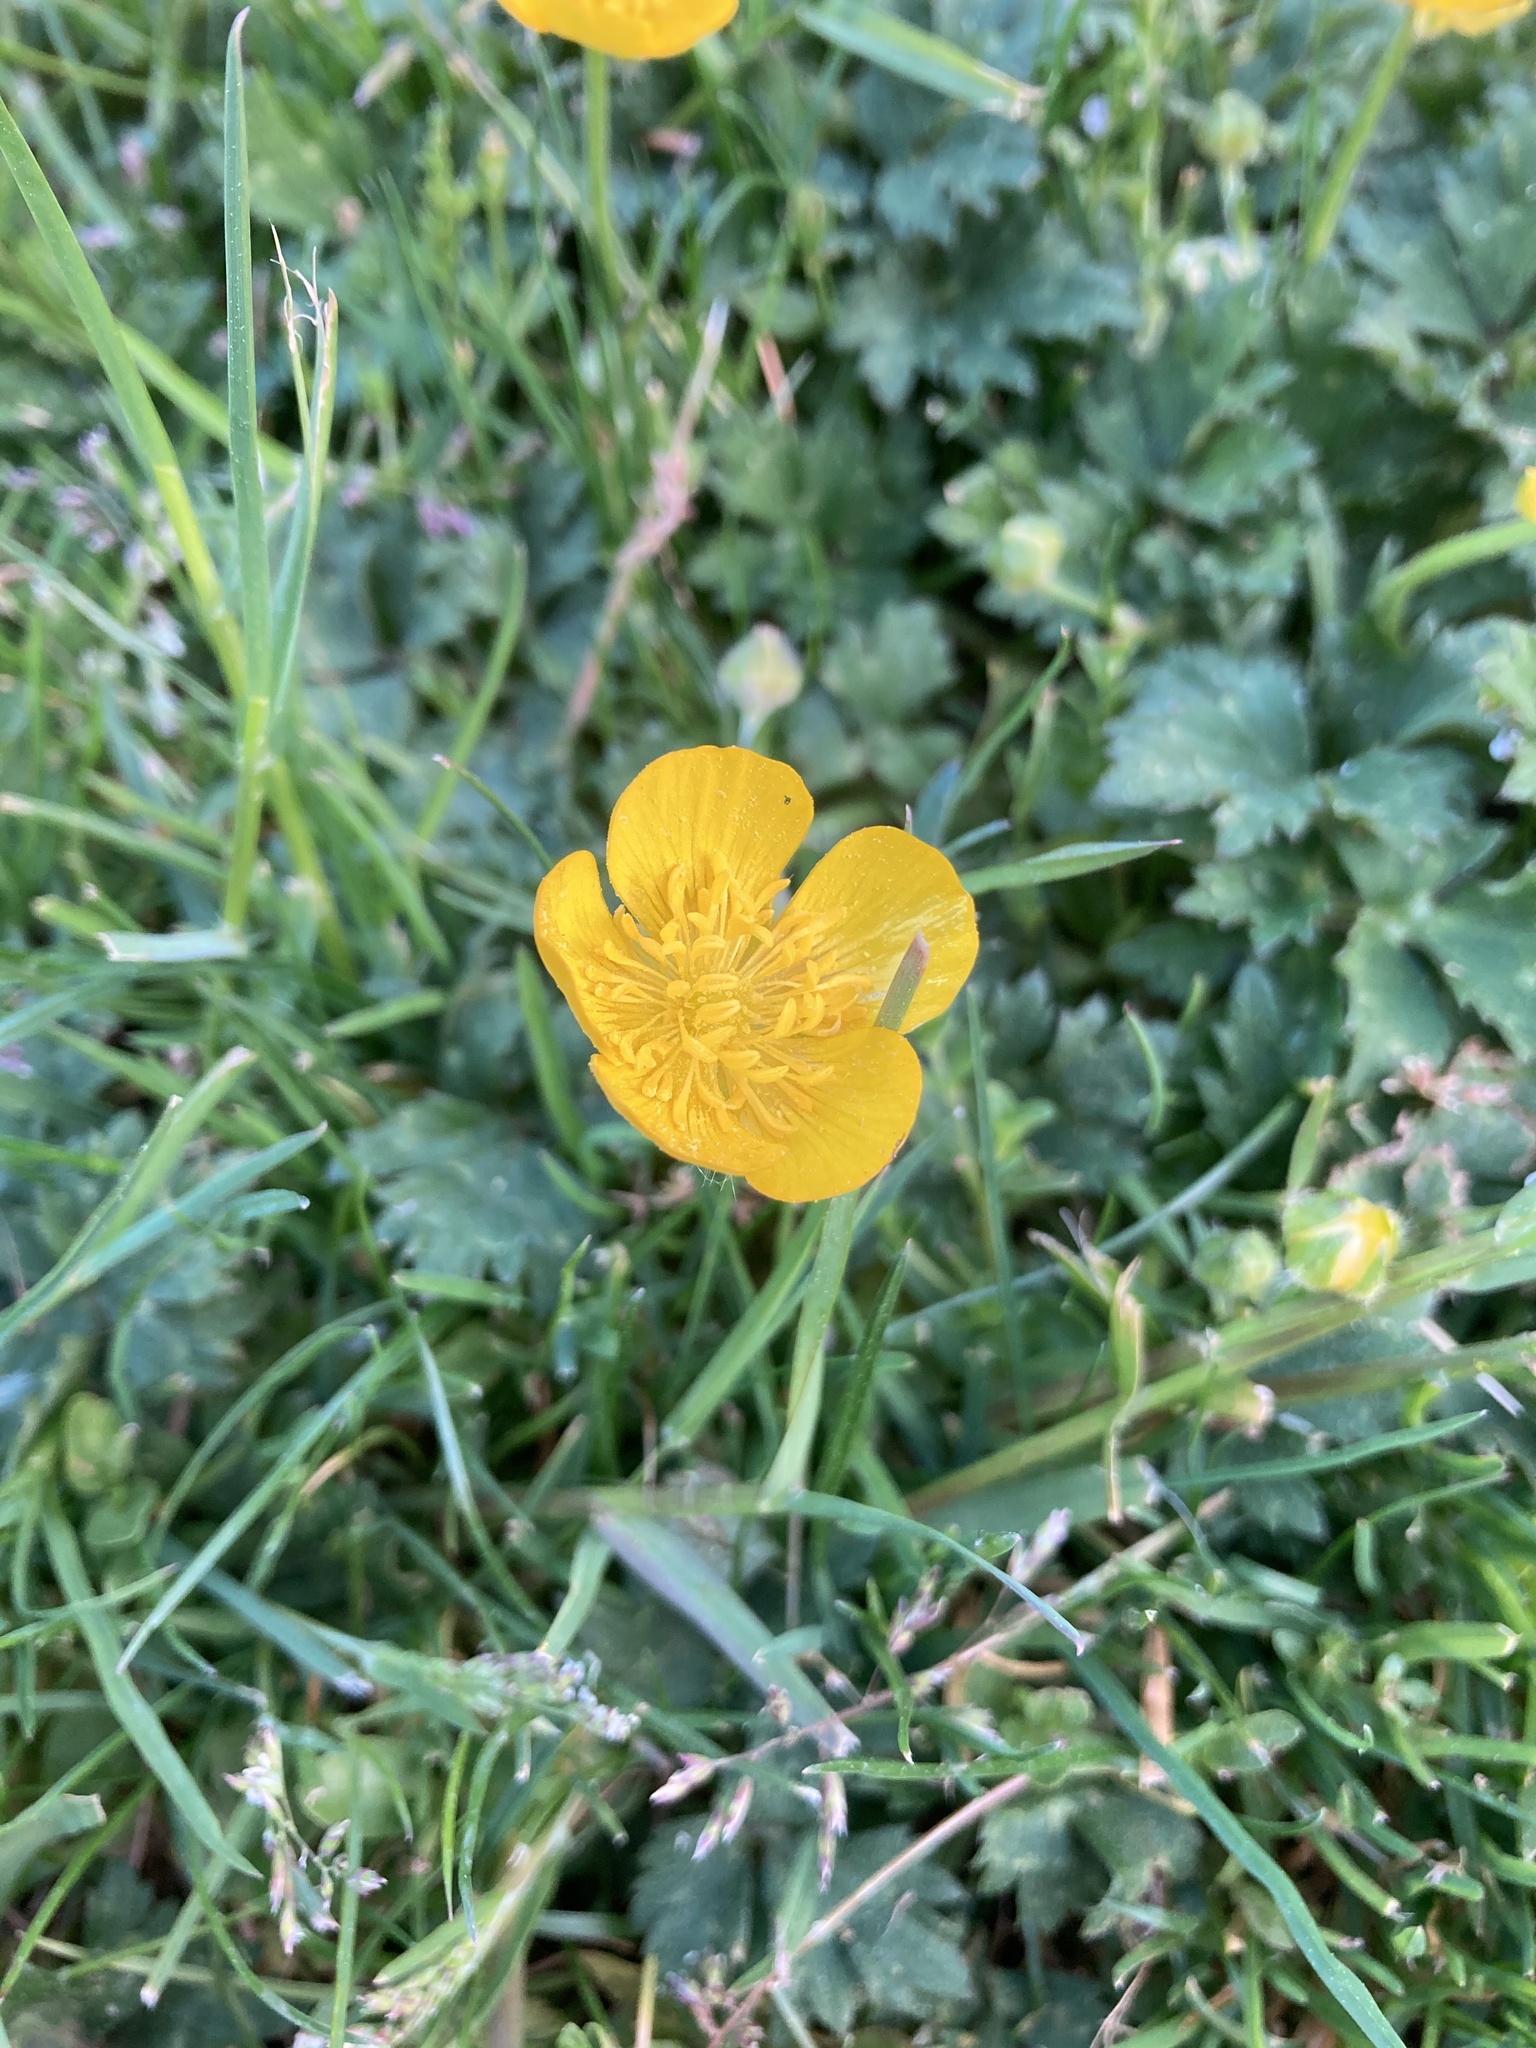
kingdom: Plantae
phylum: Tracheophyta
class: Magnoliopsida
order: Ranunculales
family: Ranunculaceae
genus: Ranunculus
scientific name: Ranunculus repens
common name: Creeping buttercup
